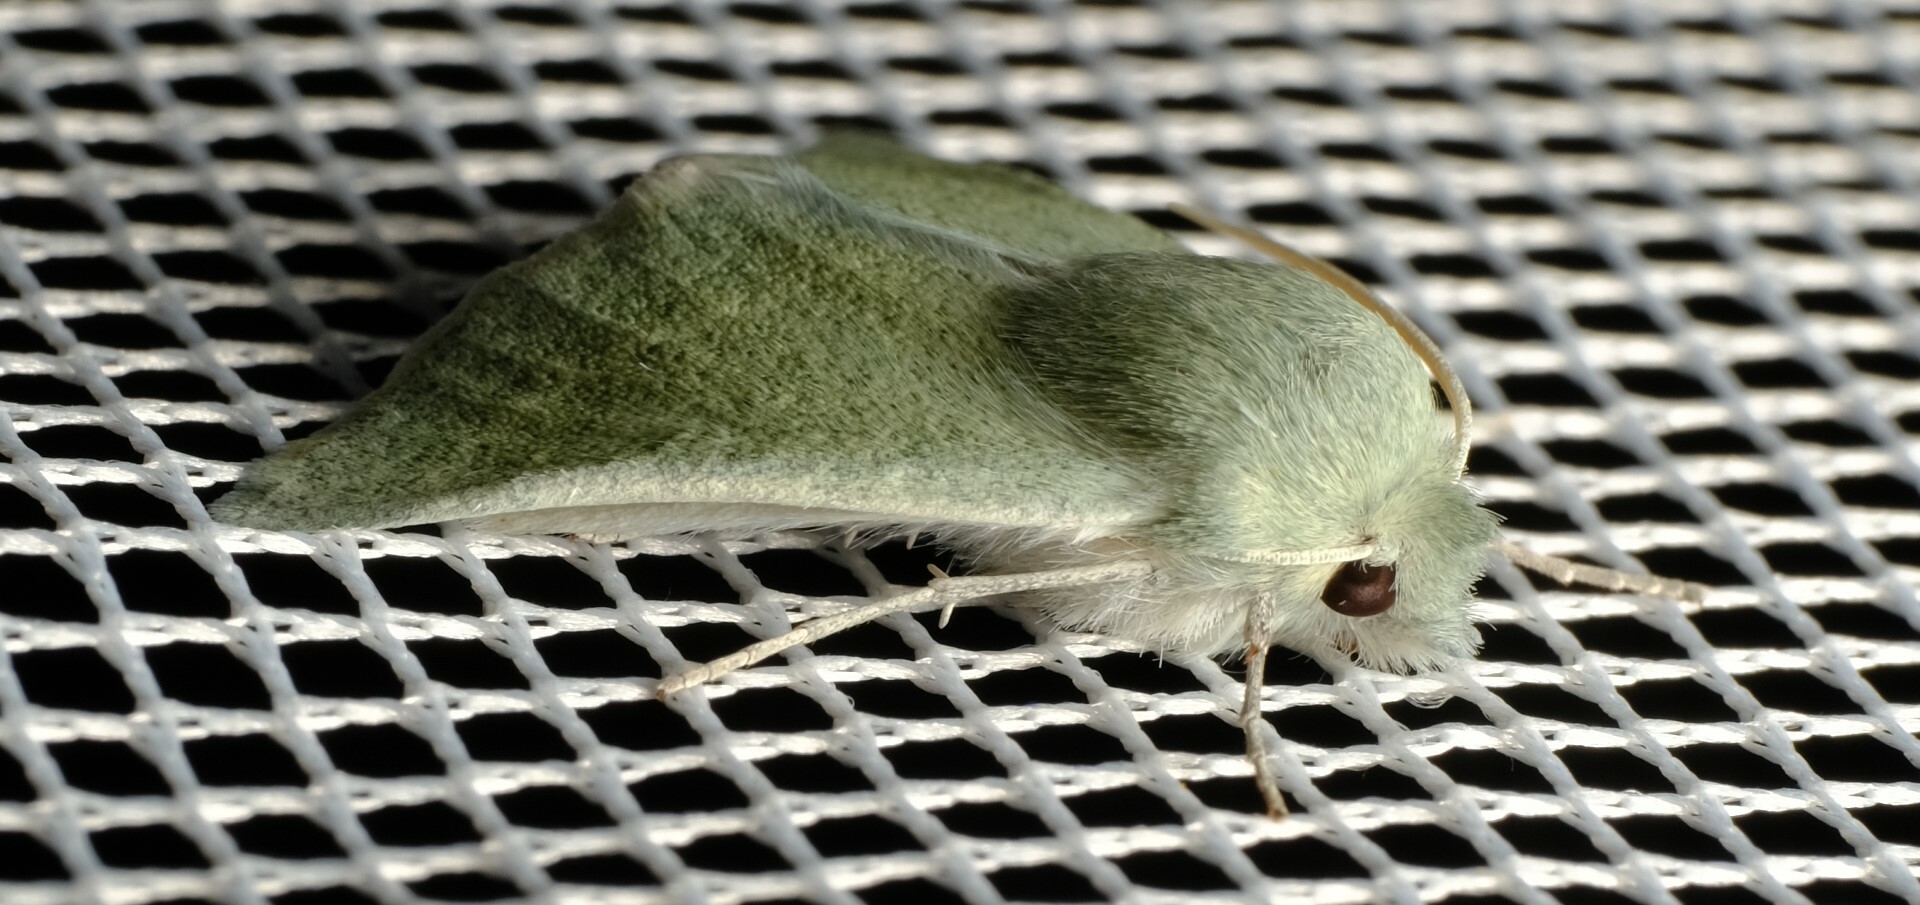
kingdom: Animalia
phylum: Arthropoda
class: Insecta
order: Lepidoptera
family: Geometridae
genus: Oenochroma
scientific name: Oenochroma
